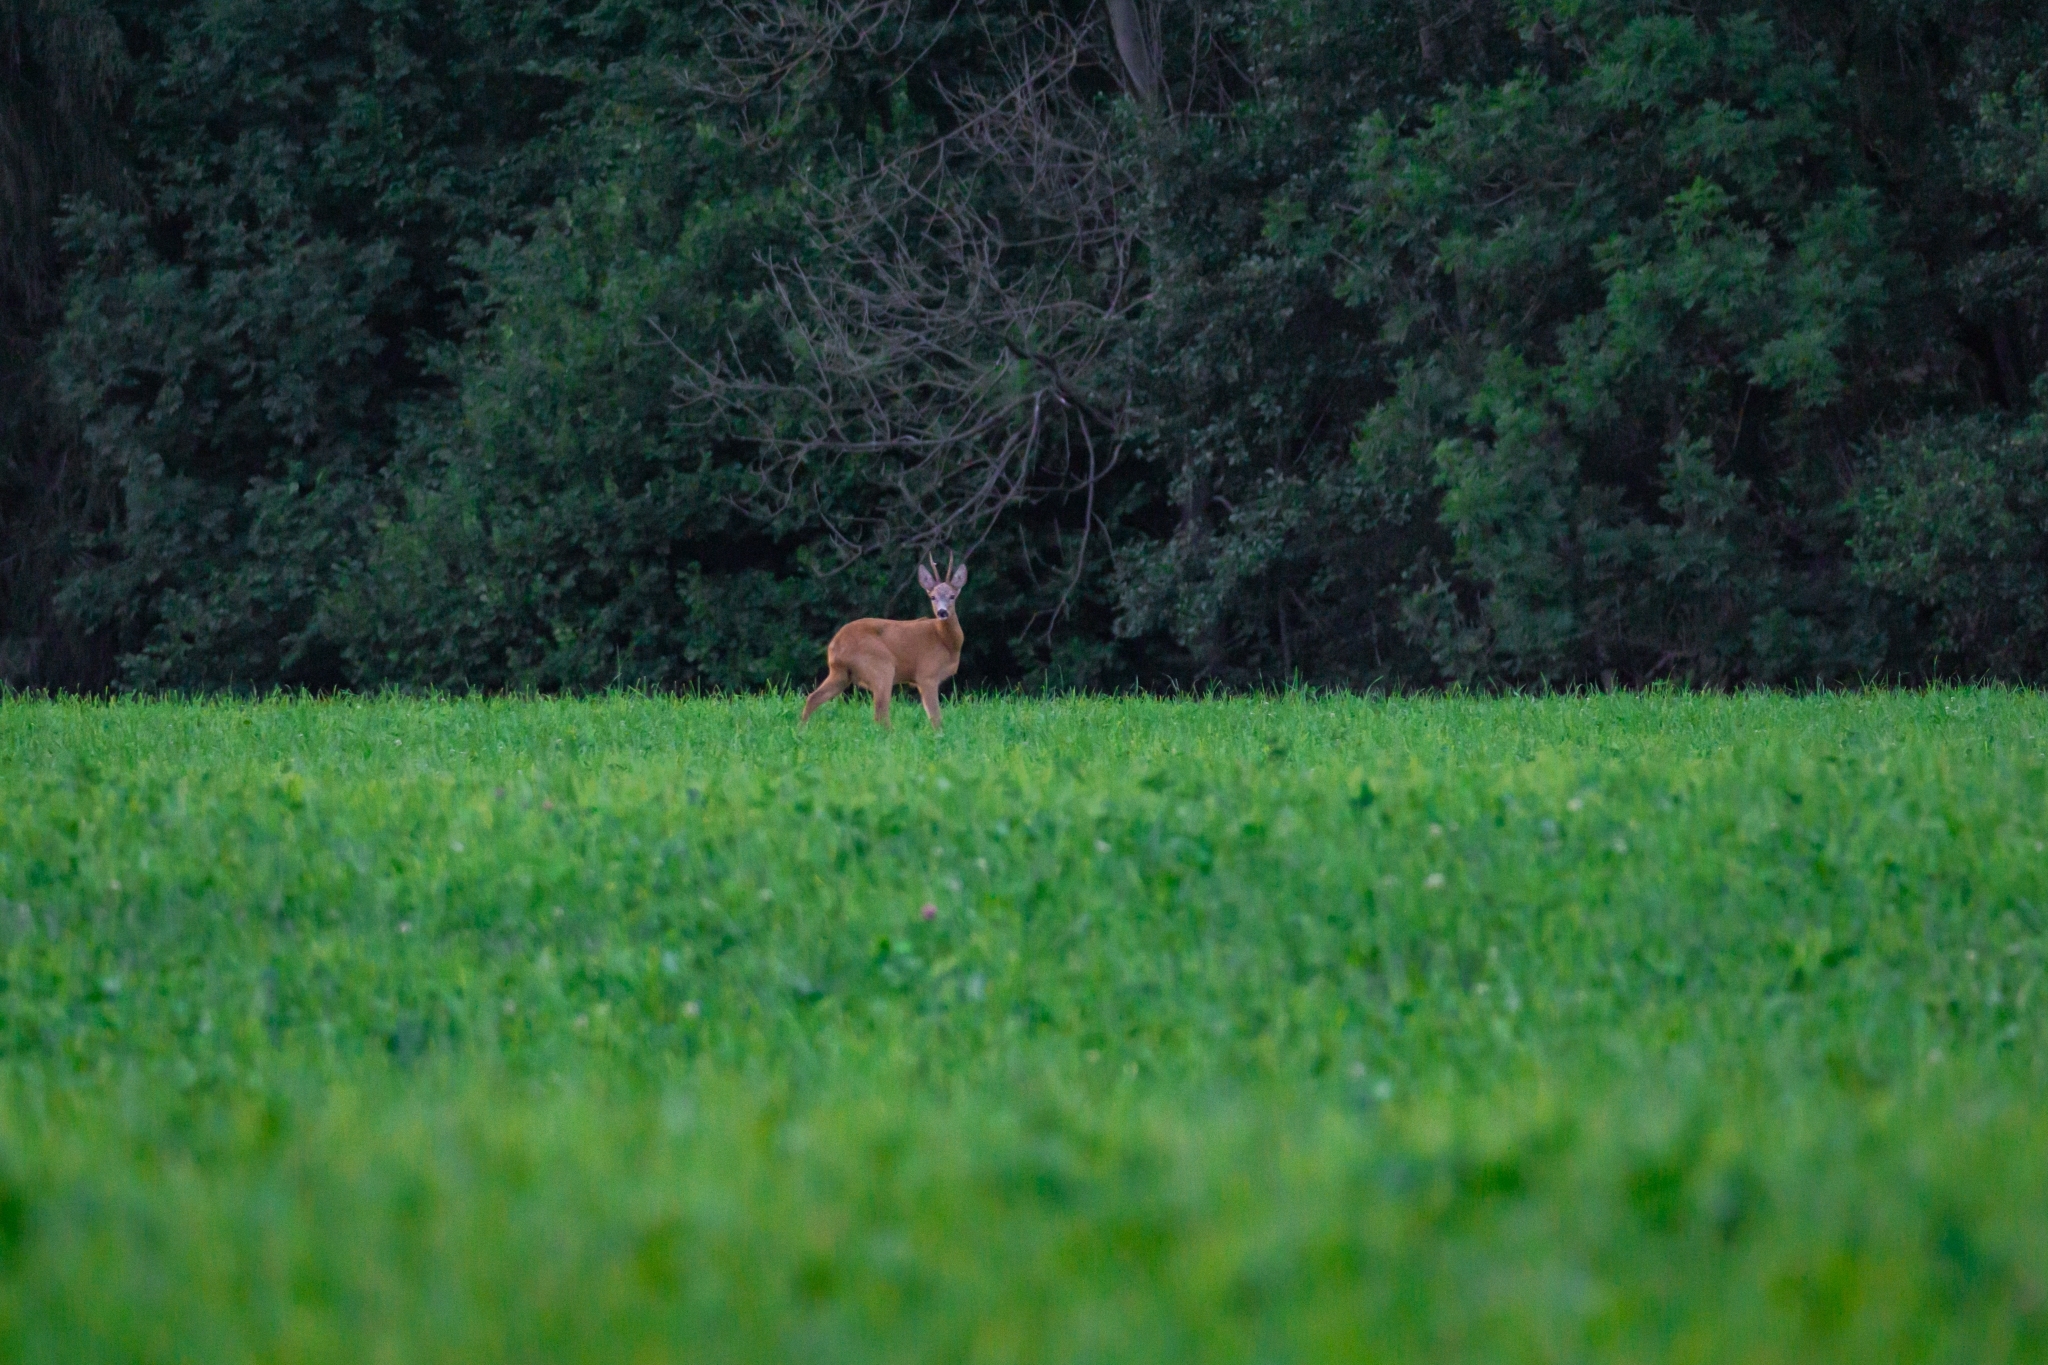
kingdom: Animalia
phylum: Chordata
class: Mammalia
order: Artiodactyla
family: Cervidae
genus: Capreolus
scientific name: Capreolus capreolus
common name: Western roe deer
